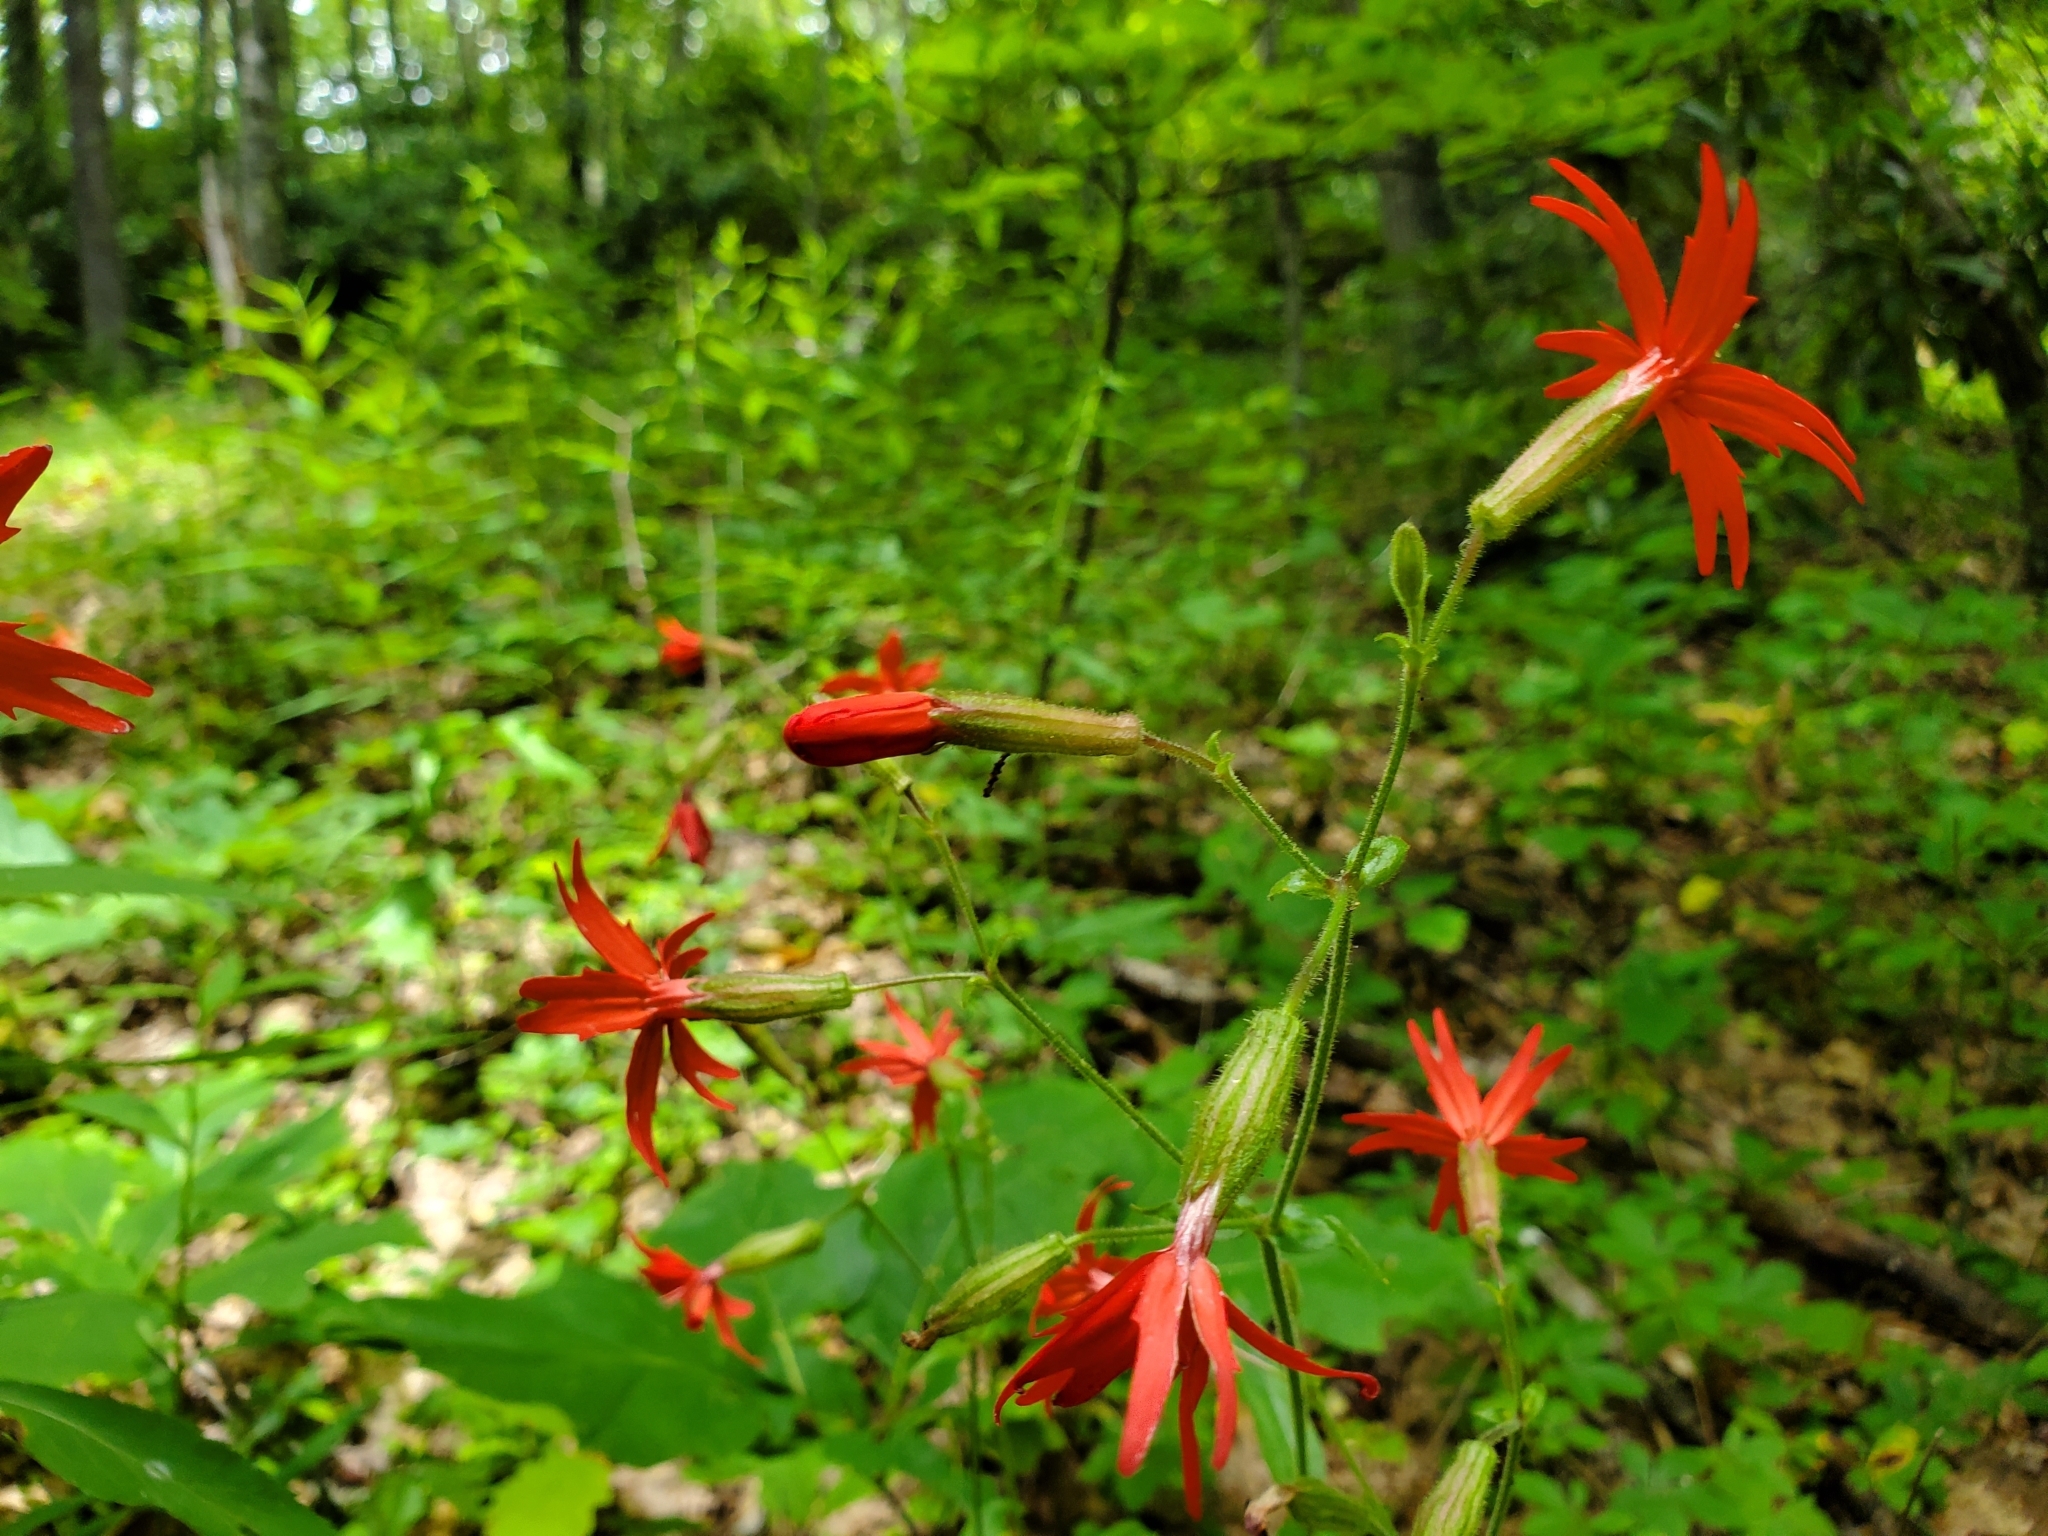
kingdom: Plantae
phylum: Tracheophyta
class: Magnoliopsida
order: Caryophyllales
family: Caryophyllaceae
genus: Silene
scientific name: Silene virginica
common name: Fire-pink
